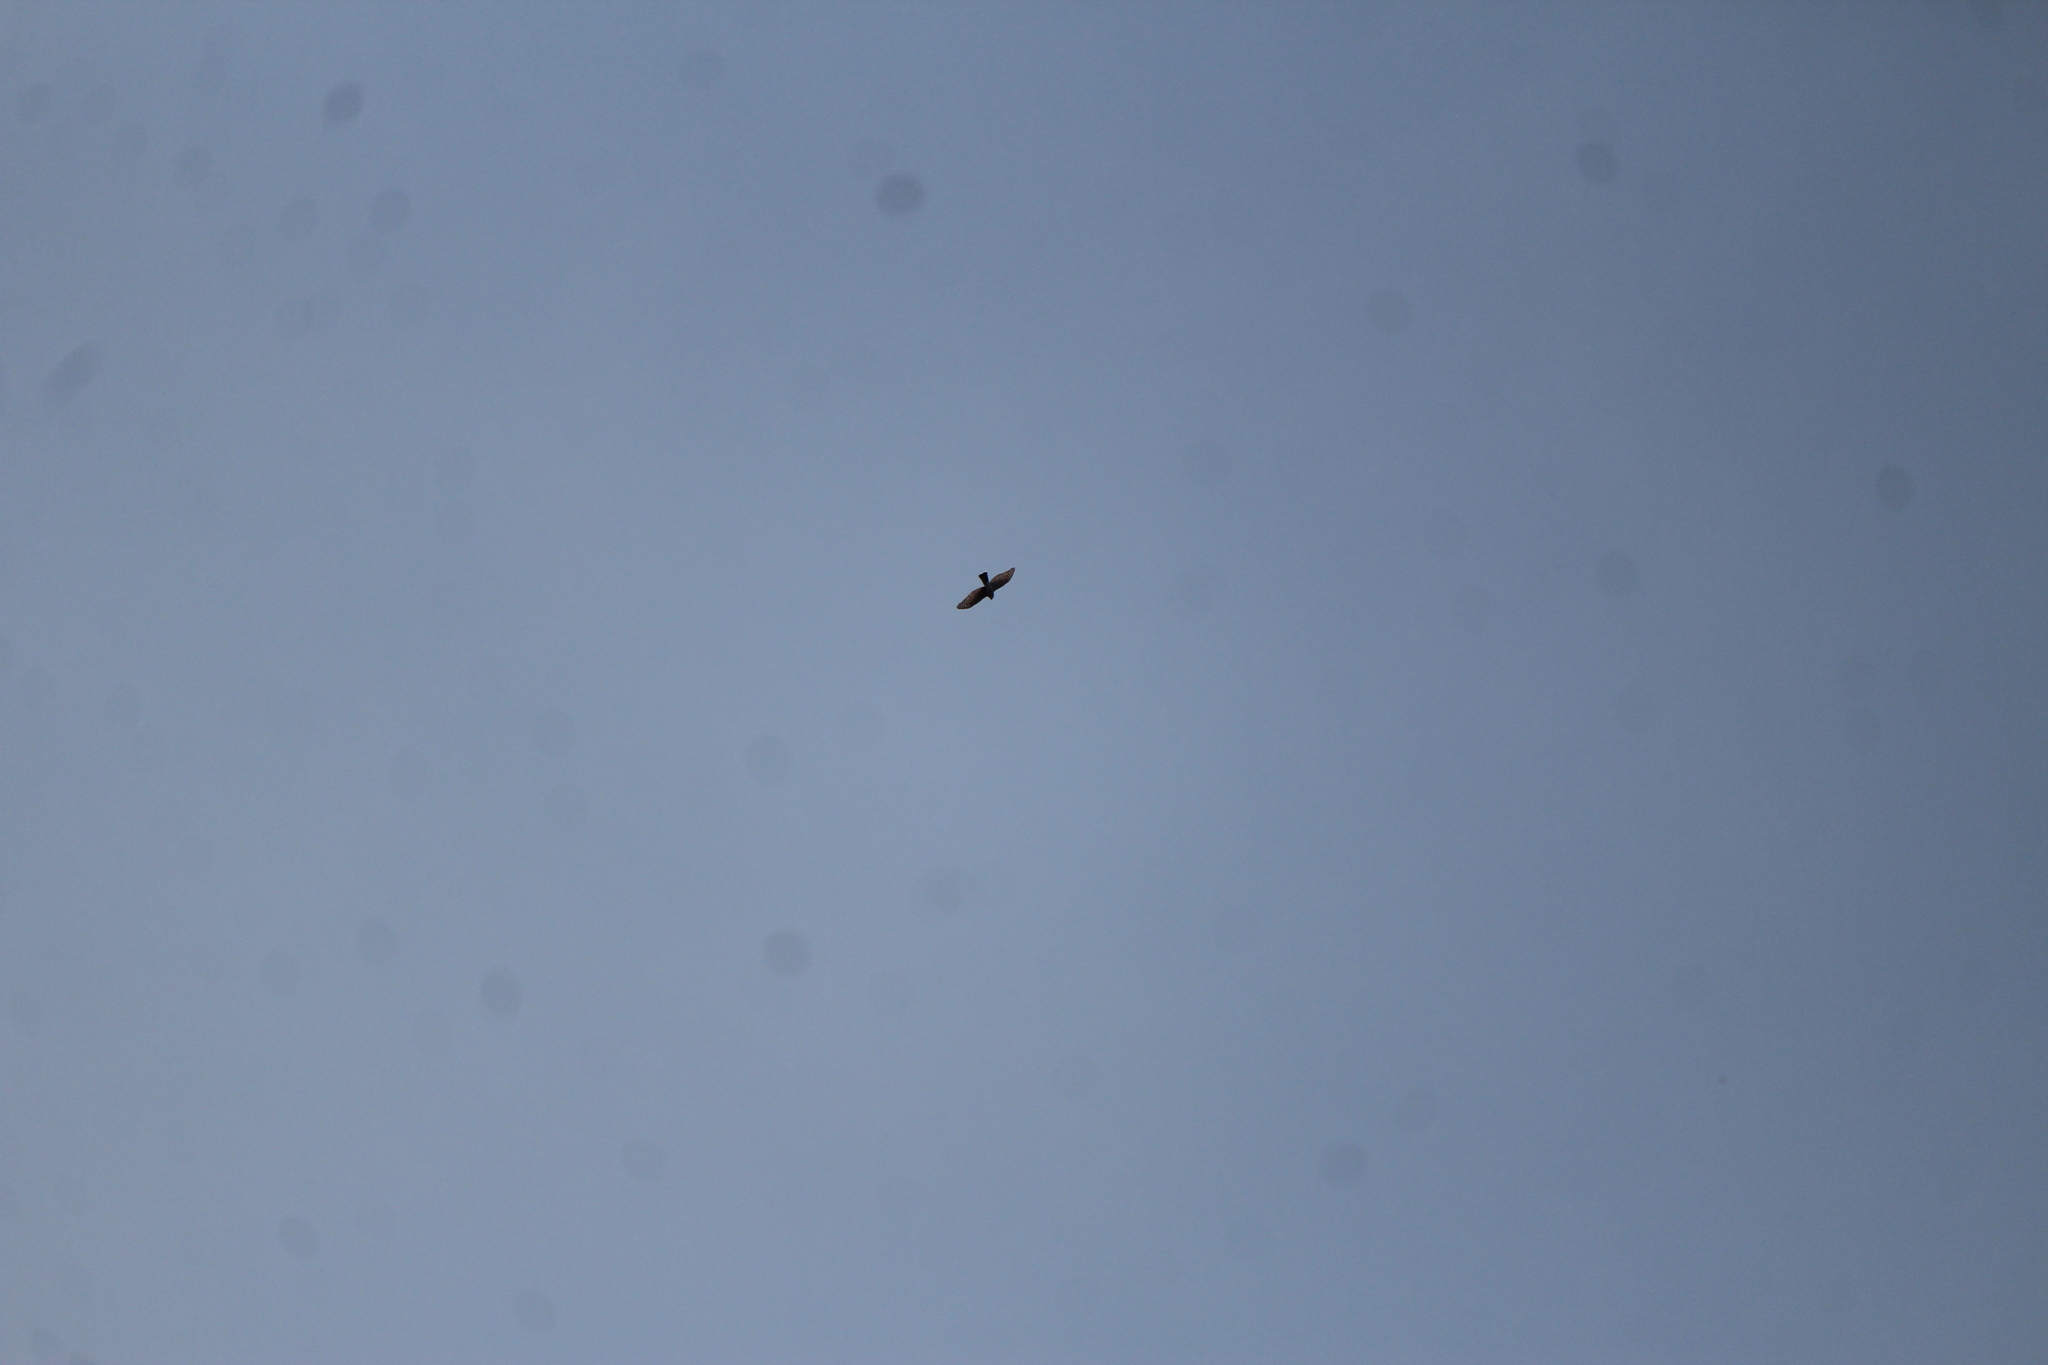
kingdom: Animalia
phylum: Chordata
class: Aves
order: Accipitriformes
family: Accipitridae
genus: Accipiter
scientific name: Accipiter striatus
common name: Sharp-shinned hawk
